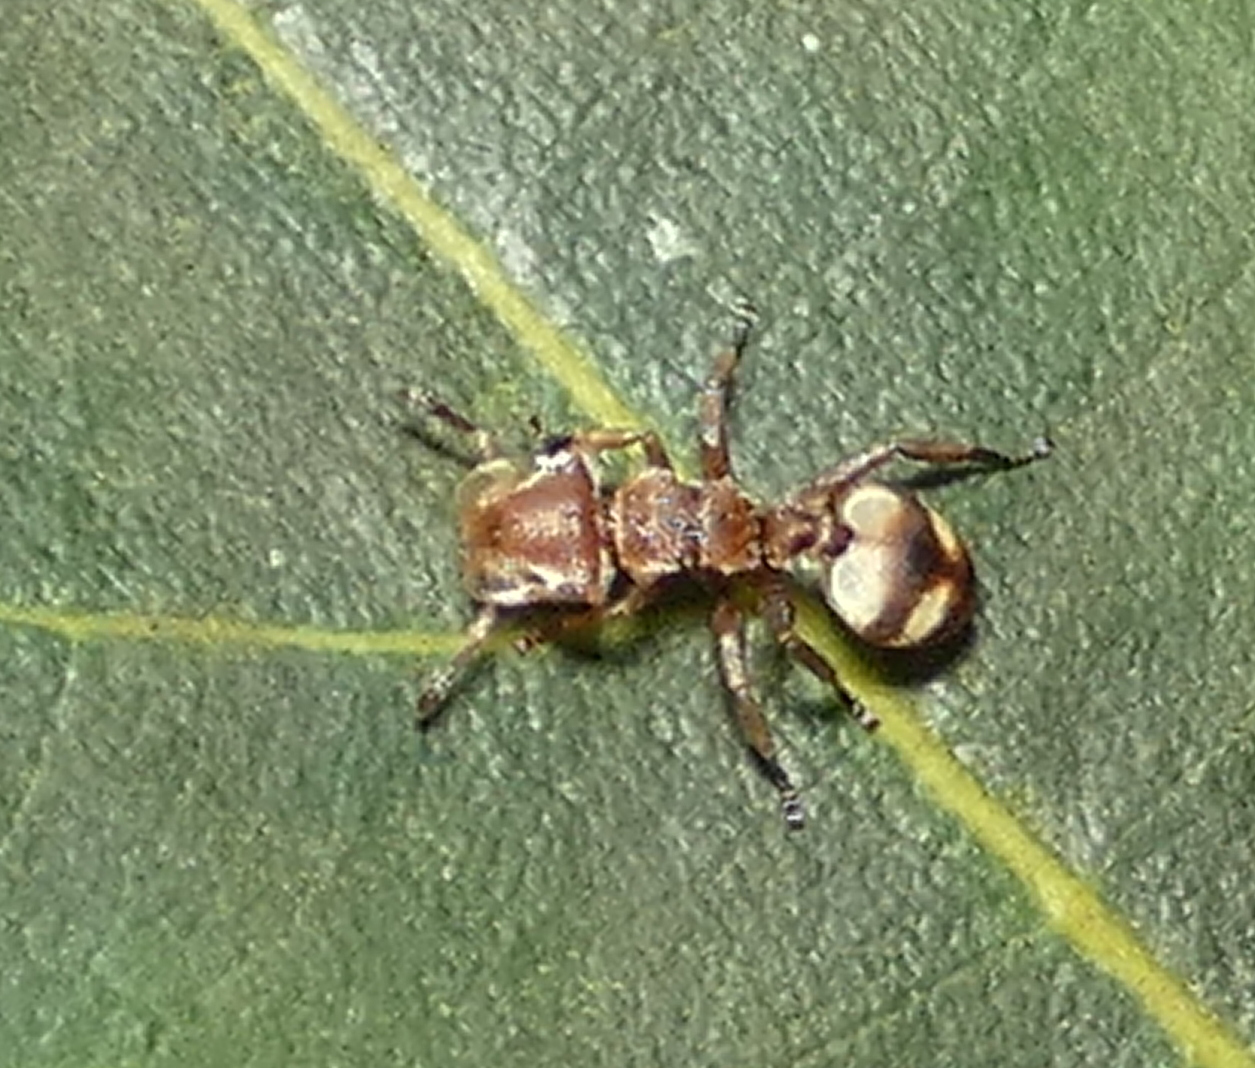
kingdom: Animalia
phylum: Arthropoda
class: Insecta
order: Hymenoptera
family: Formicidae
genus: Cephalotes
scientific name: Cephalotes umbraculatus
